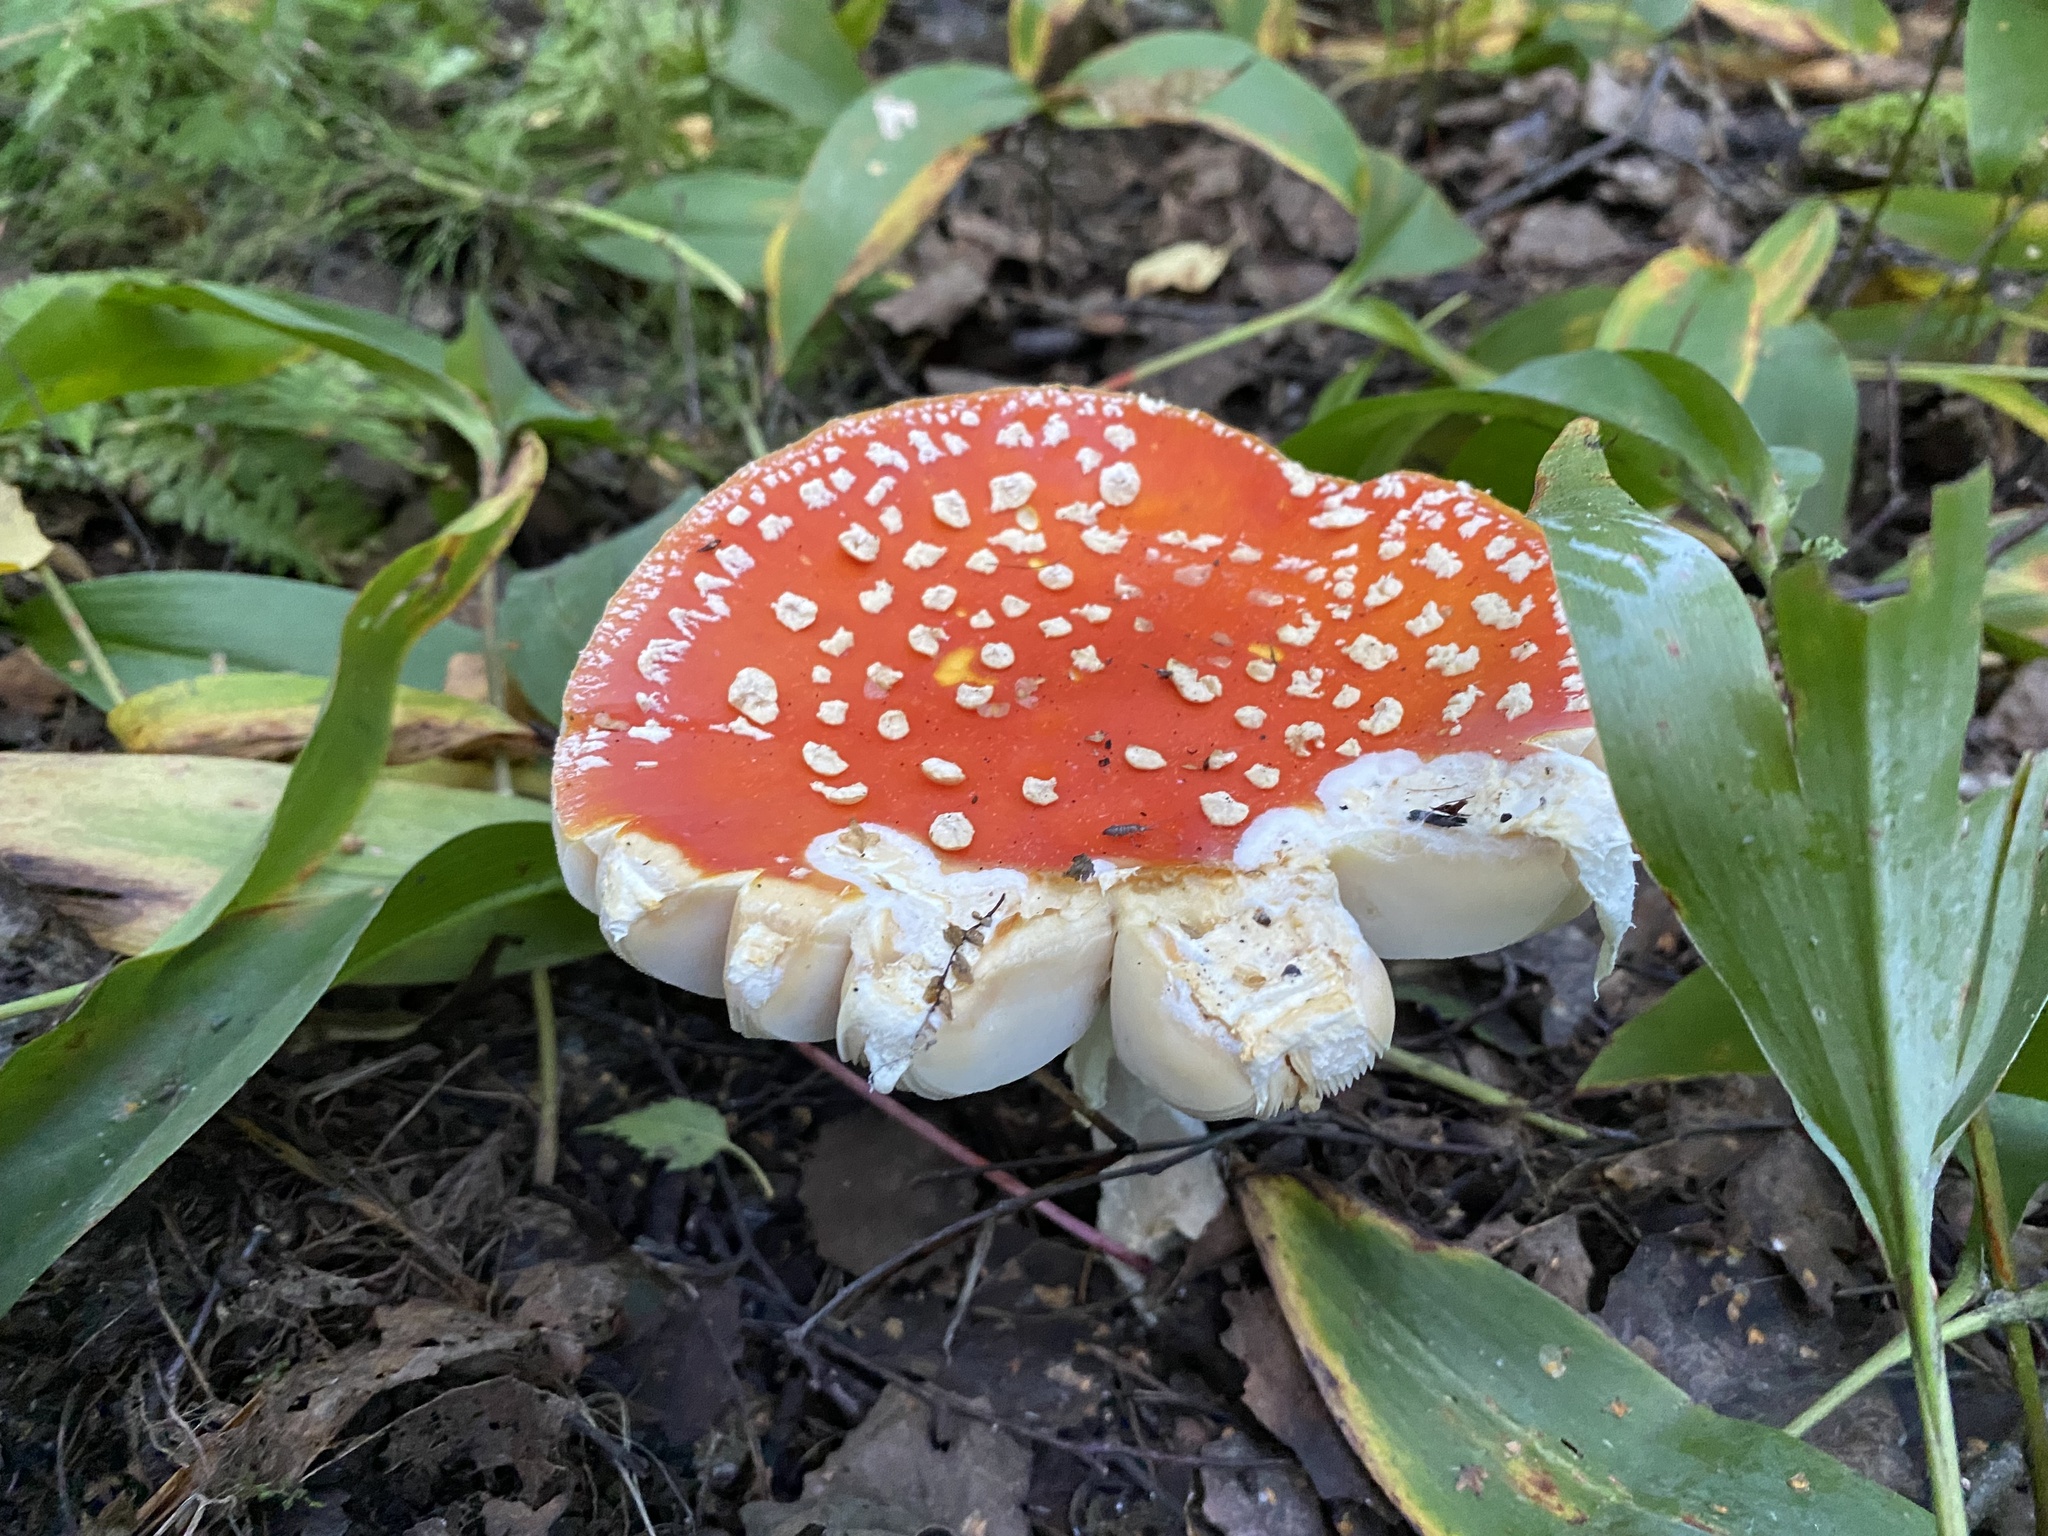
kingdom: Fungi
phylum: Basidiomycota
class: Agaricomycetes
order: Agaricales
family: Amanitaceae
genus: Amanita
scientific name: Amanita muscaria
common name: Fly agaric
